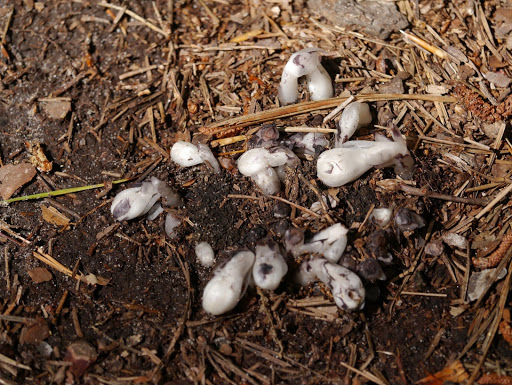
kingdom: Plantae
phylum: Tracheophyta
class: Magnoliopsida
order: Ericales
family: Ericaceae
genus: Monotropa
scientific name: Monotropa uniflora
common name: Convulsion root
